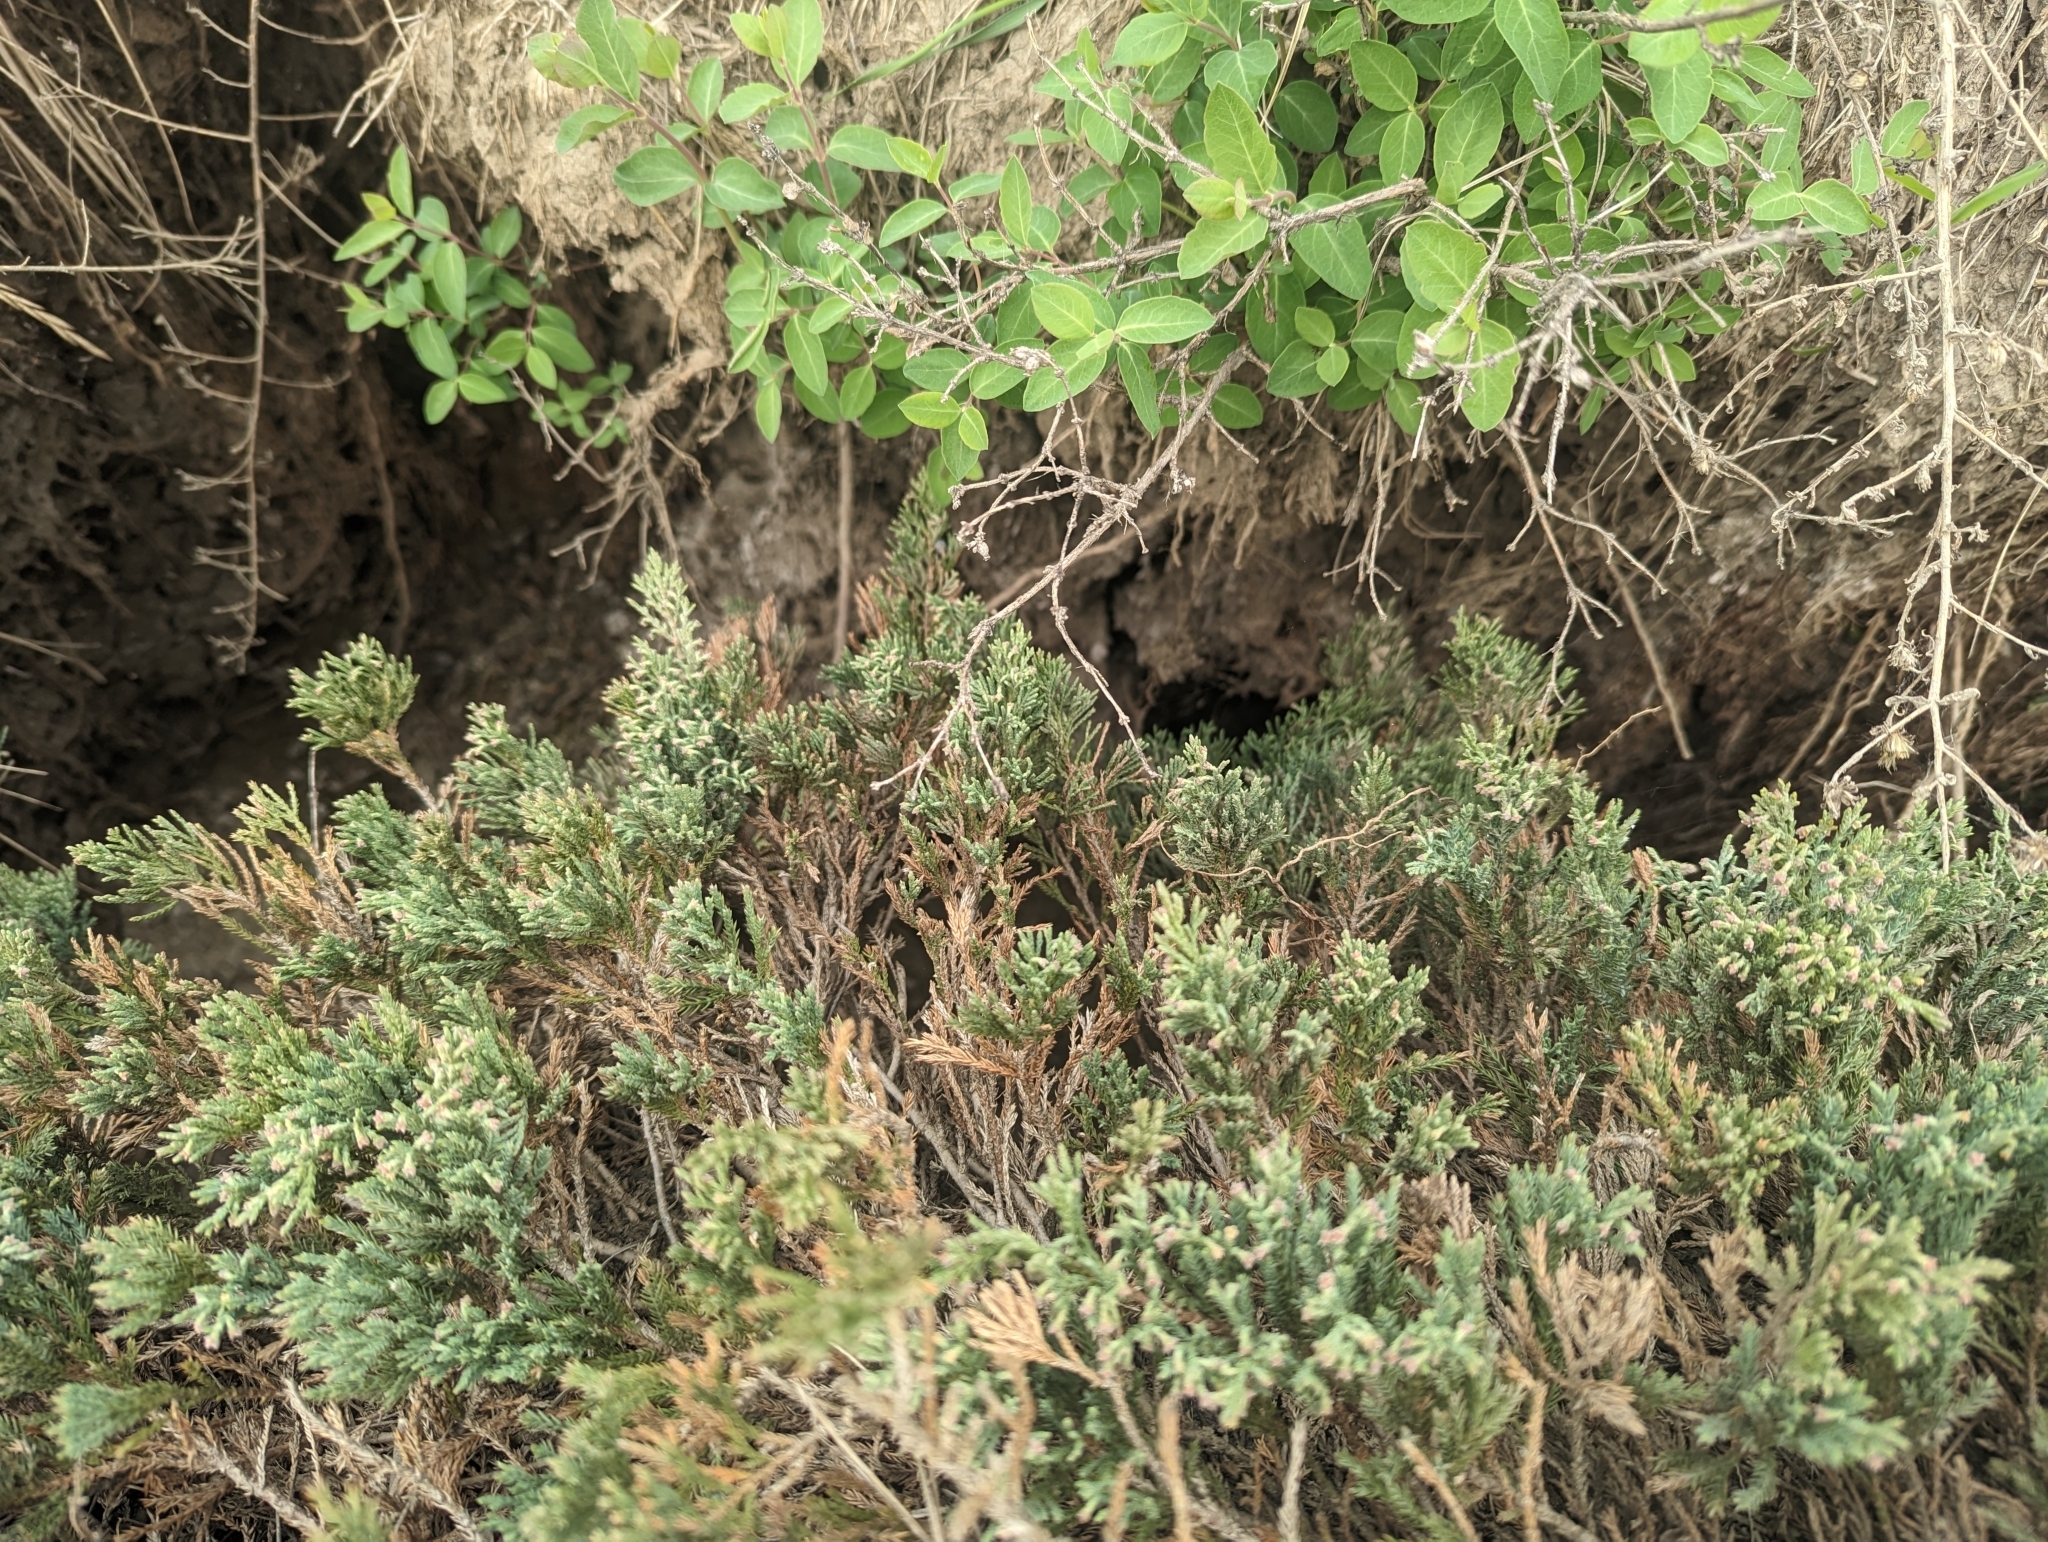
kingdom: Plantae
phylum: Tracheophyta
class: Pinopsida
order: Pinales
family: Cupressaceae
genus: Juniperus
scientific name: Juniperus horizontalis
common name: Creeping juniper
